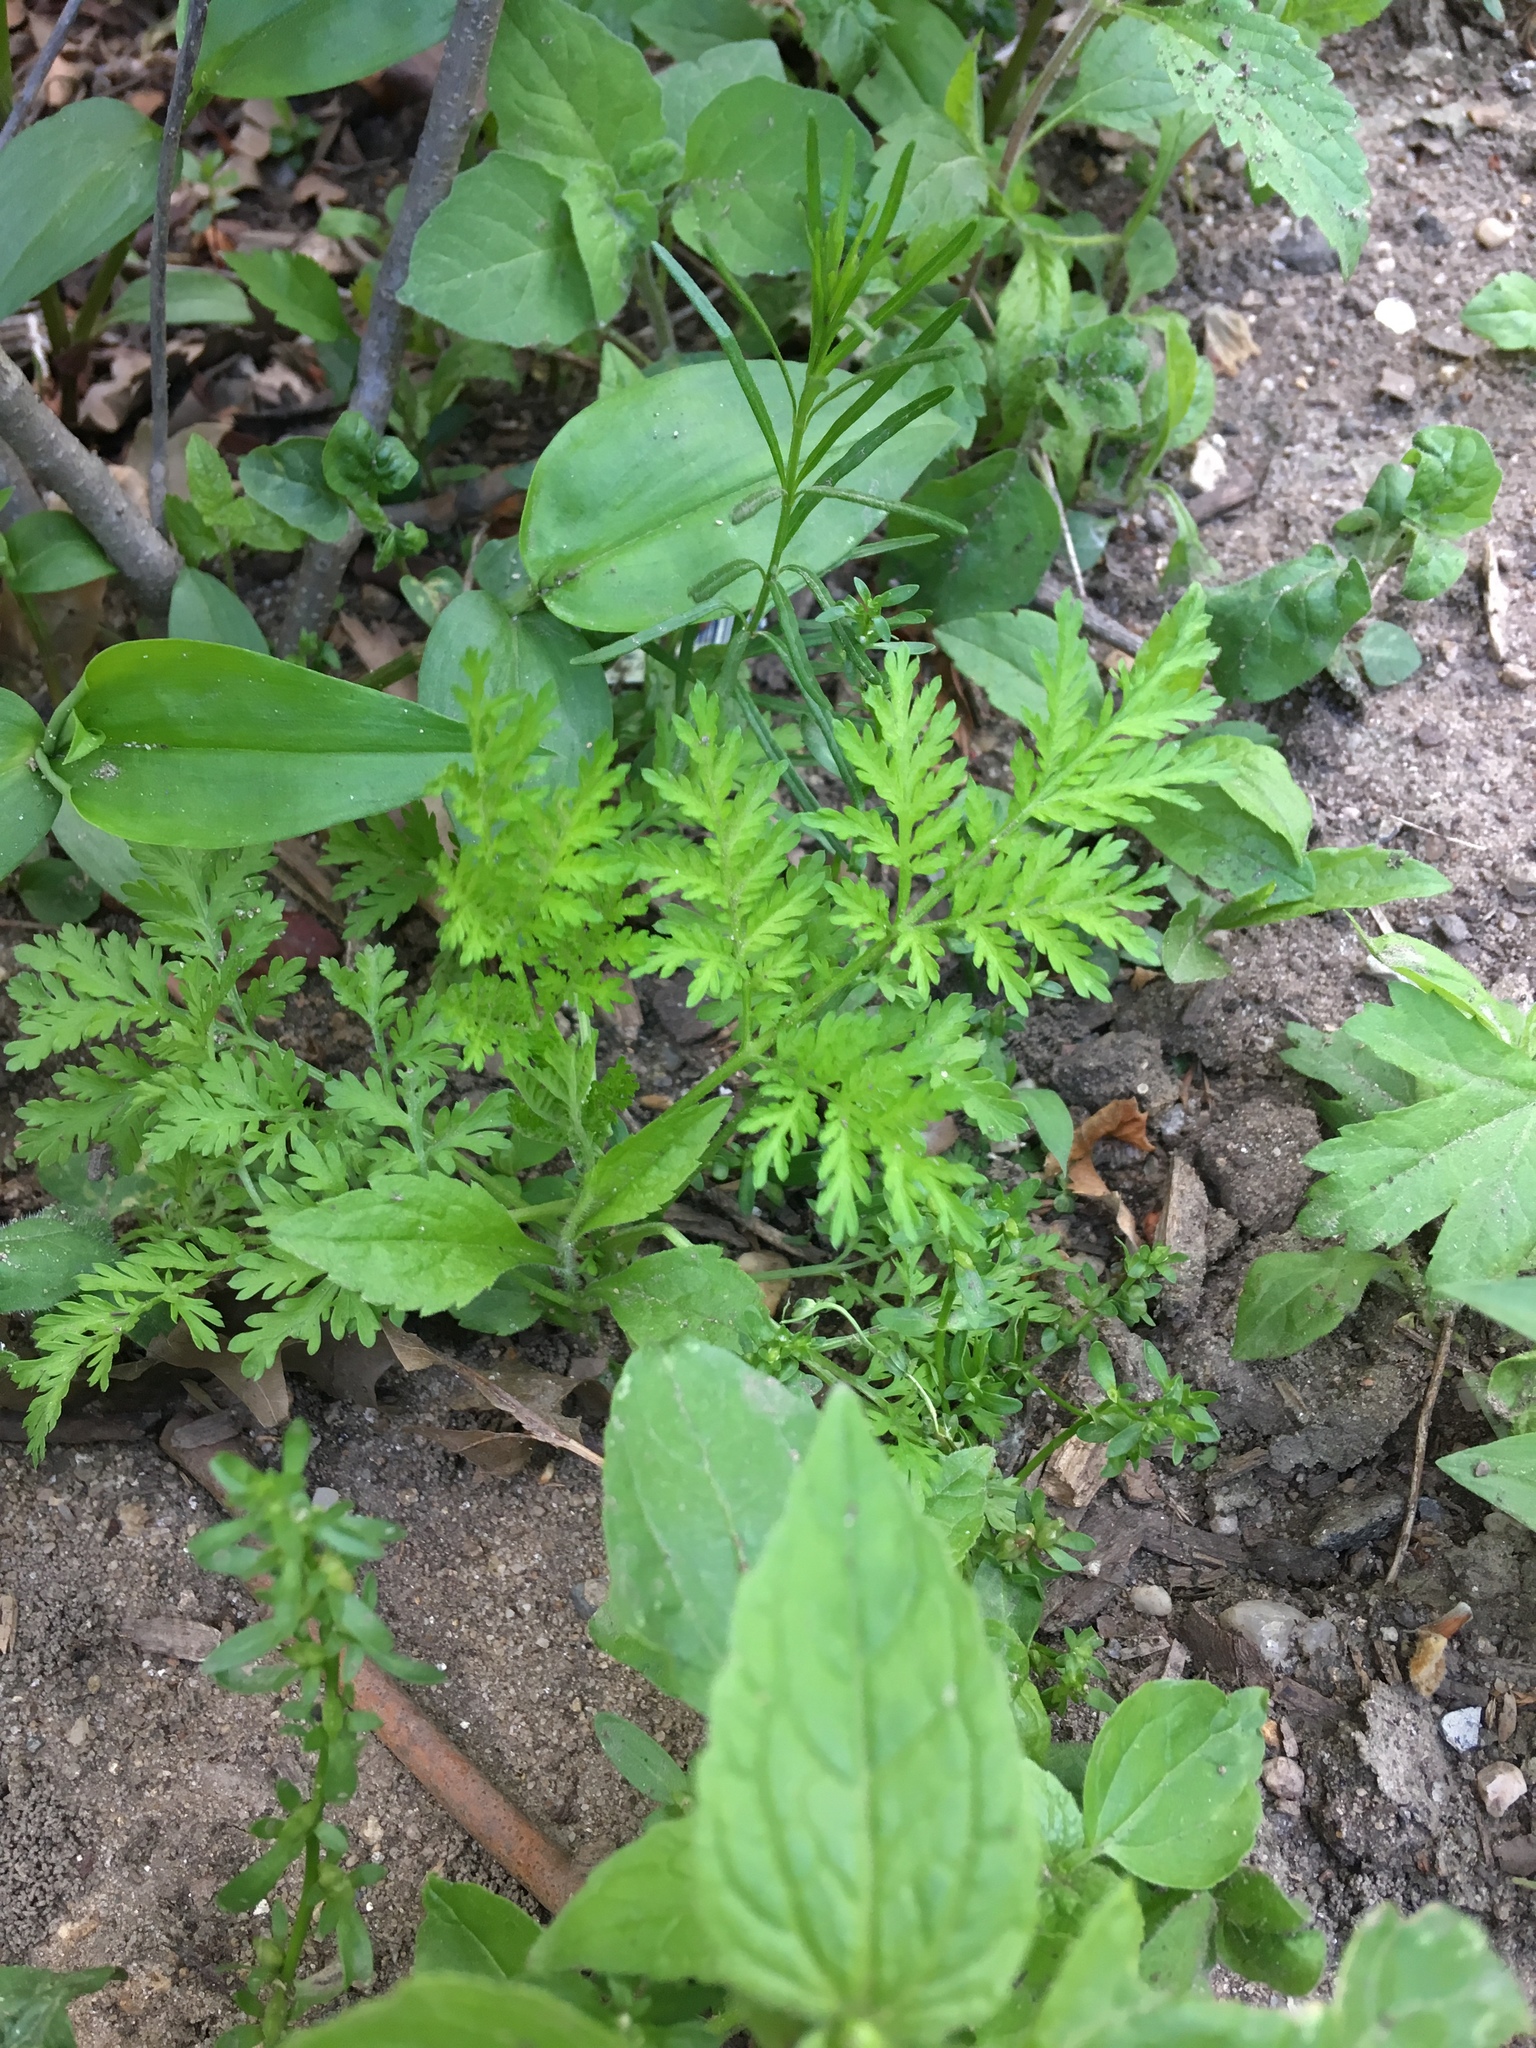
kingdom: Plantae
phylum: Tracheophyta
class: Magnoliopsida
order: Asterales
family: Asteraceae
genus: Artemisia
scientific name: Artemisia annua
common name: Sweet sagewort
